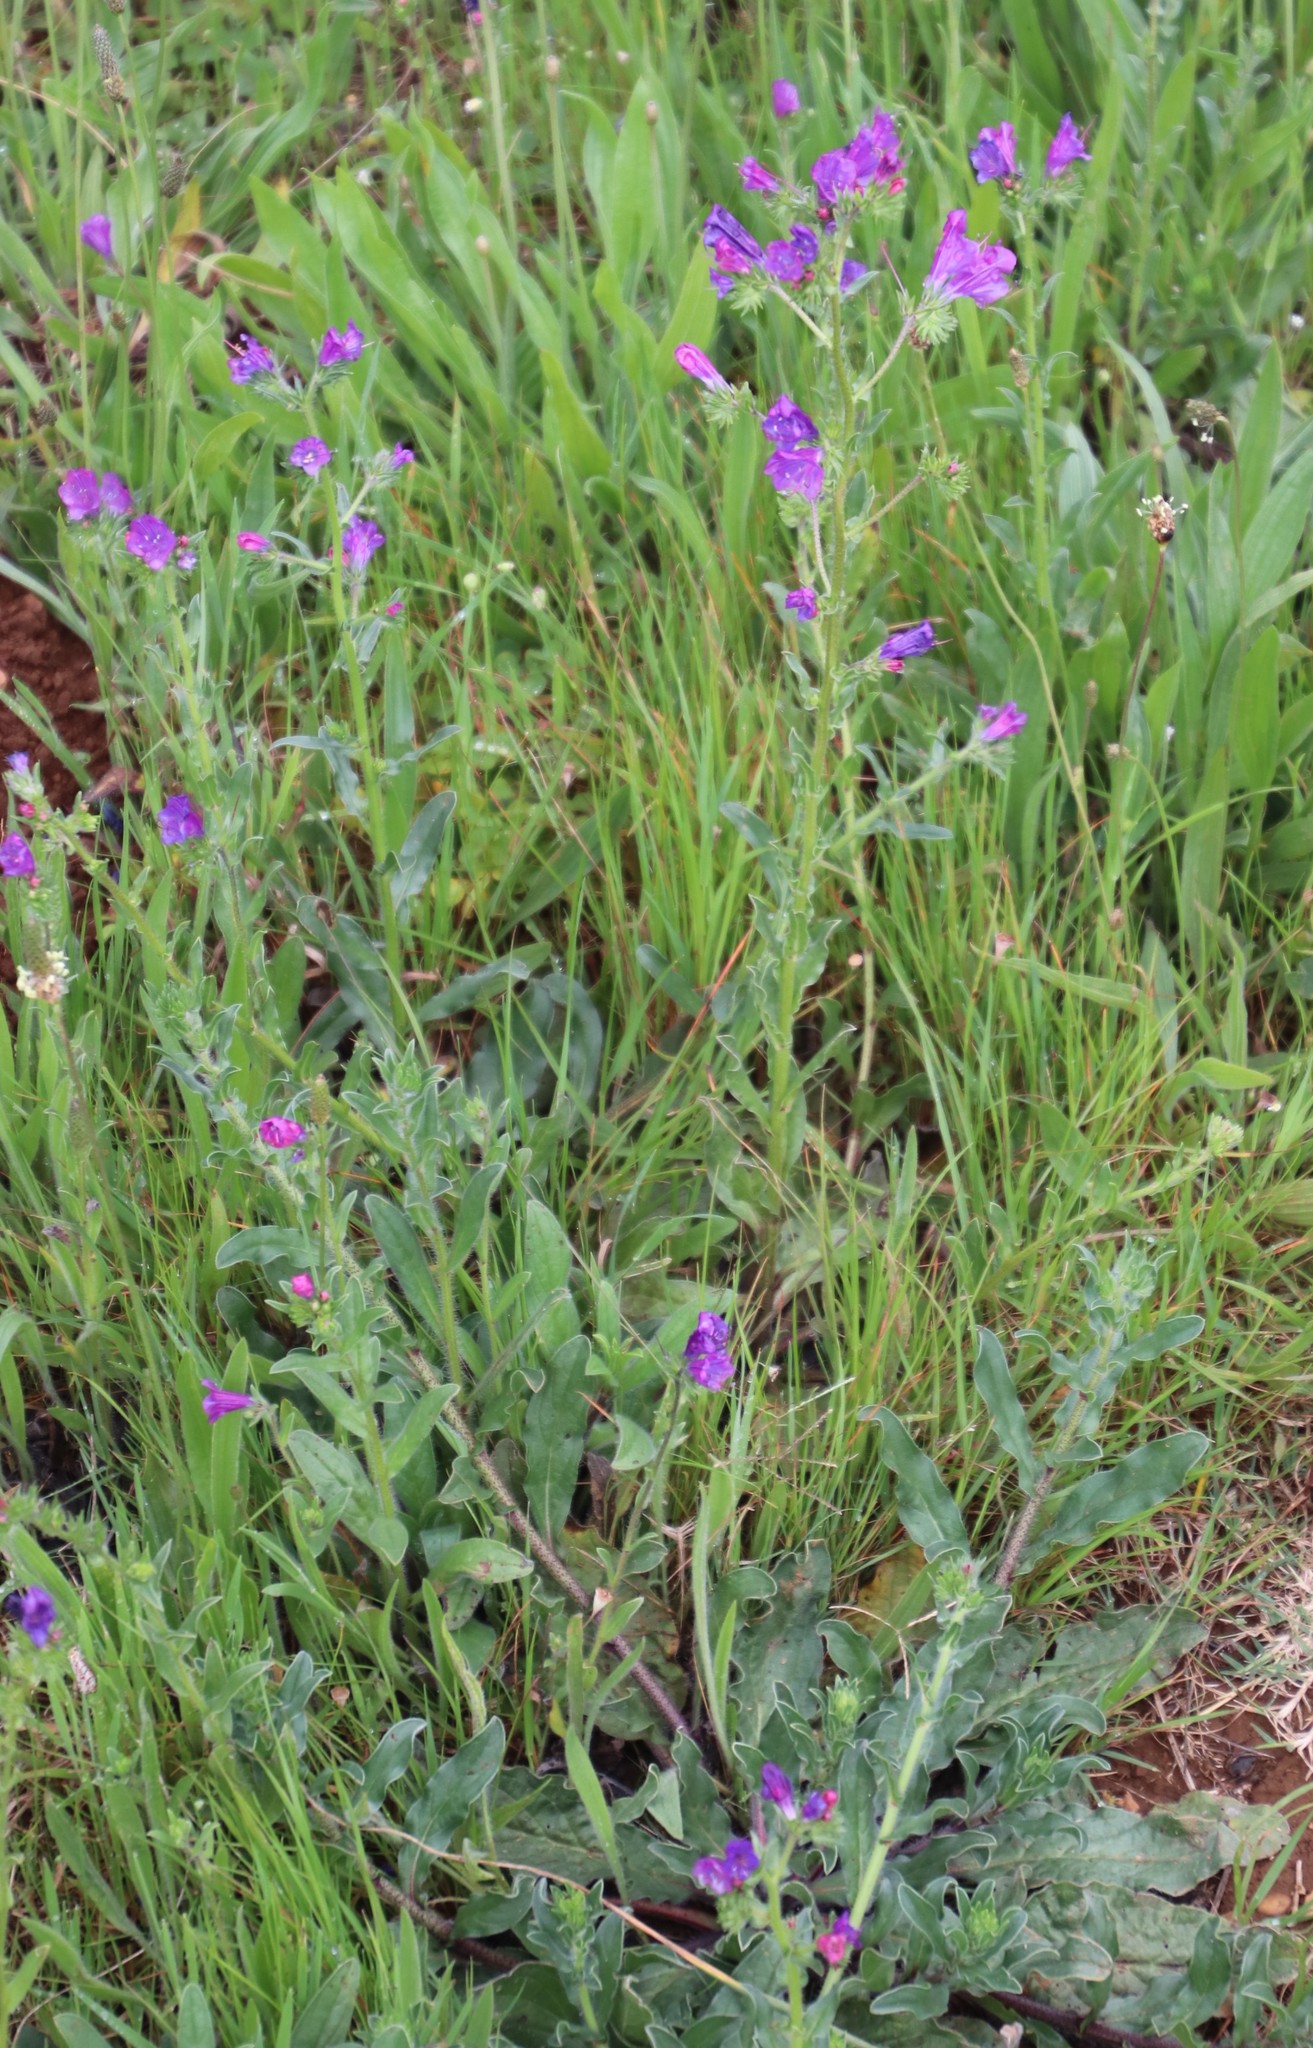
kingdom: Plantae
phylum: Tracheophyta
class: Magnoliopsida
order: Boraginales
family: Boraginaceae
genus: Echium
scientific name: Echium plantagineum
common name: Purple viper's-bugloss
